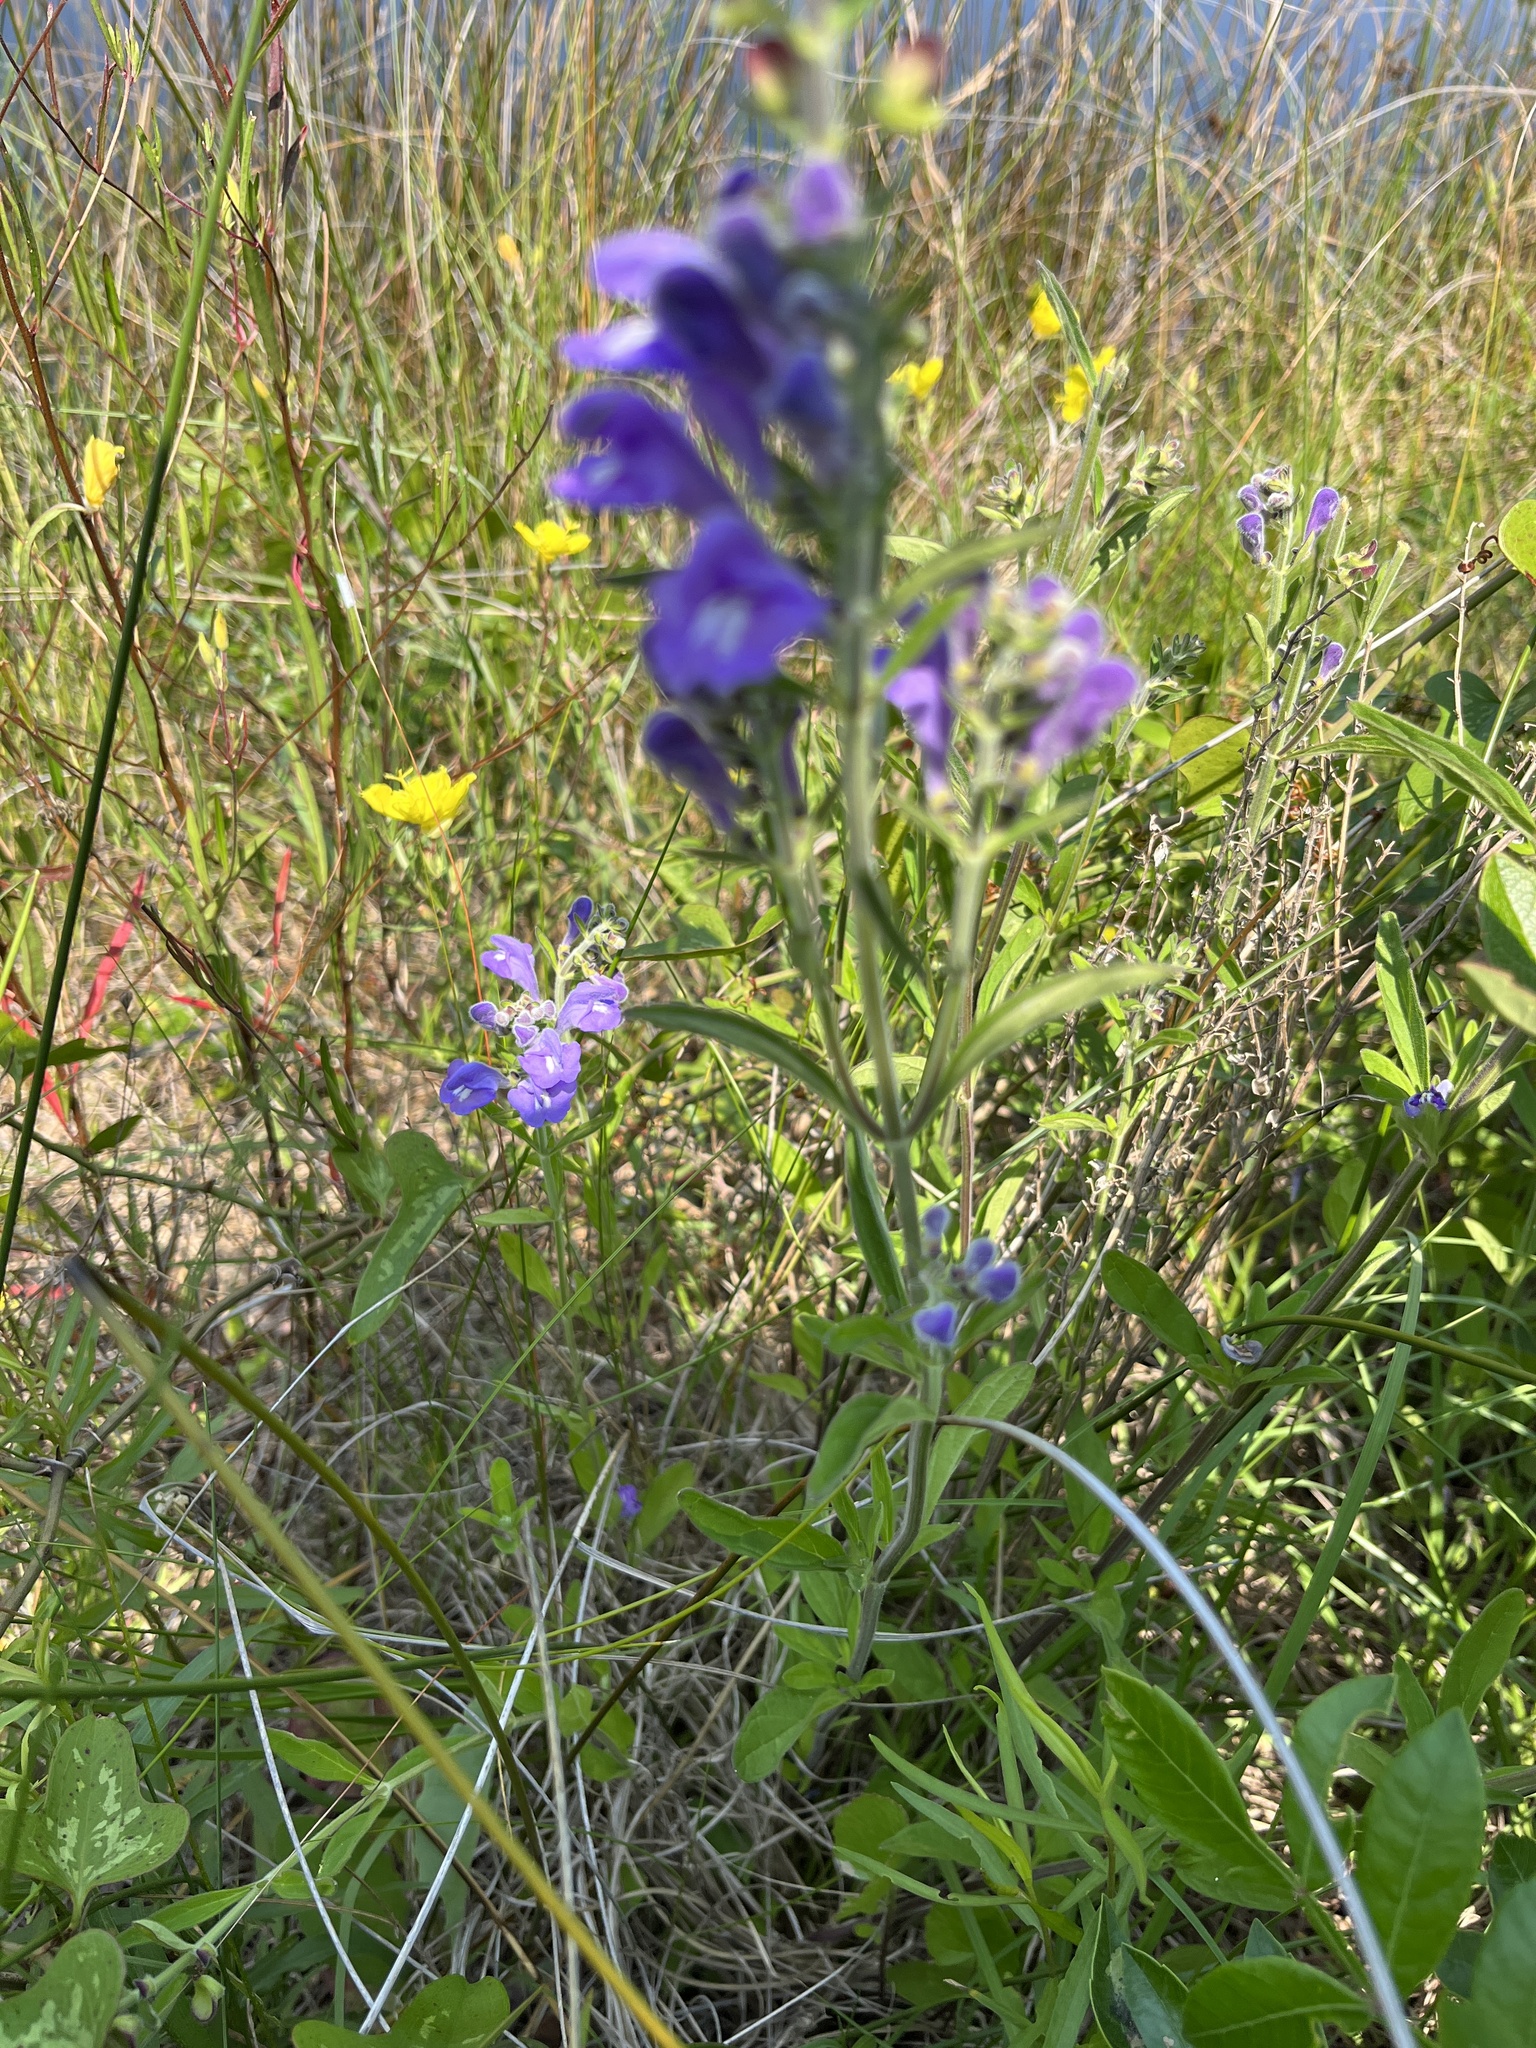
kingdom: Plantae
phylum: Tracheophyta
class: Magnoliopsida
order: Lamiales
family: Lamiaceae
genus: Scutellaria
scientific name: Scutellaria integrifolia
